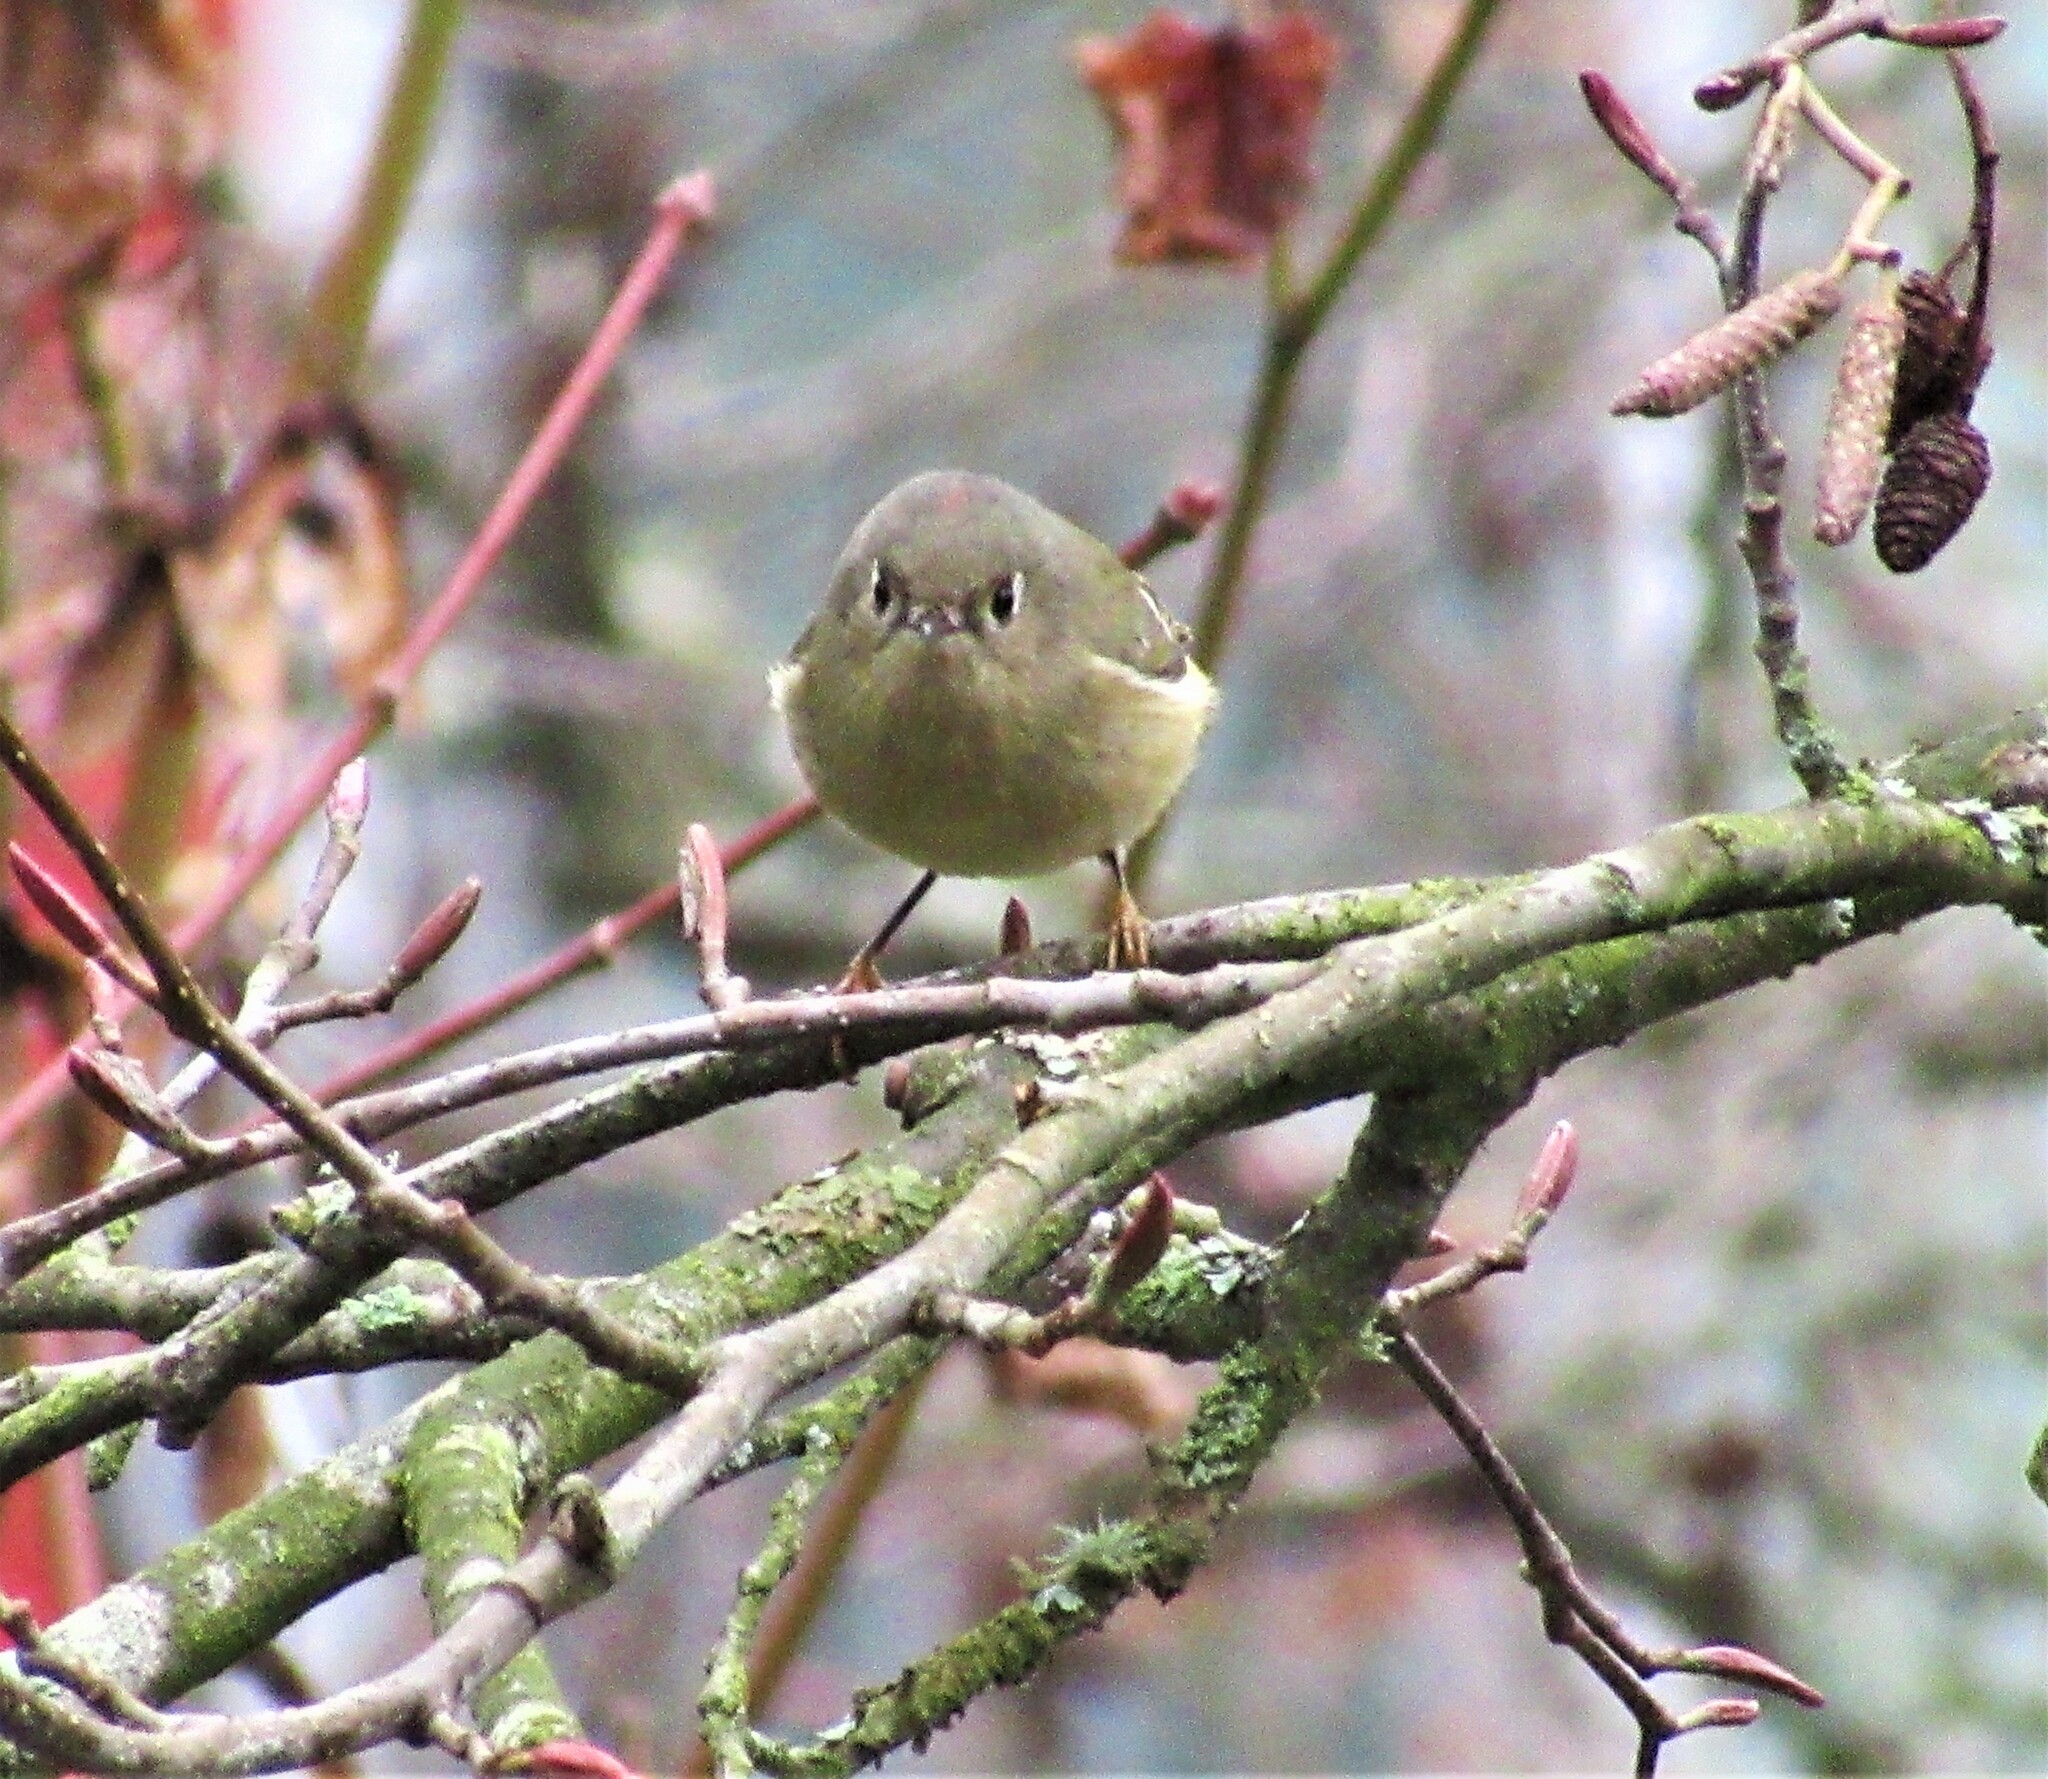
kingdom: Animalia
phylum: Chordata
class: Aves
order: Passeriformes
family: Regulidae
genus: Regulus
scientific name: Regulus calendula
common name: Ruby-crowned kinglet
